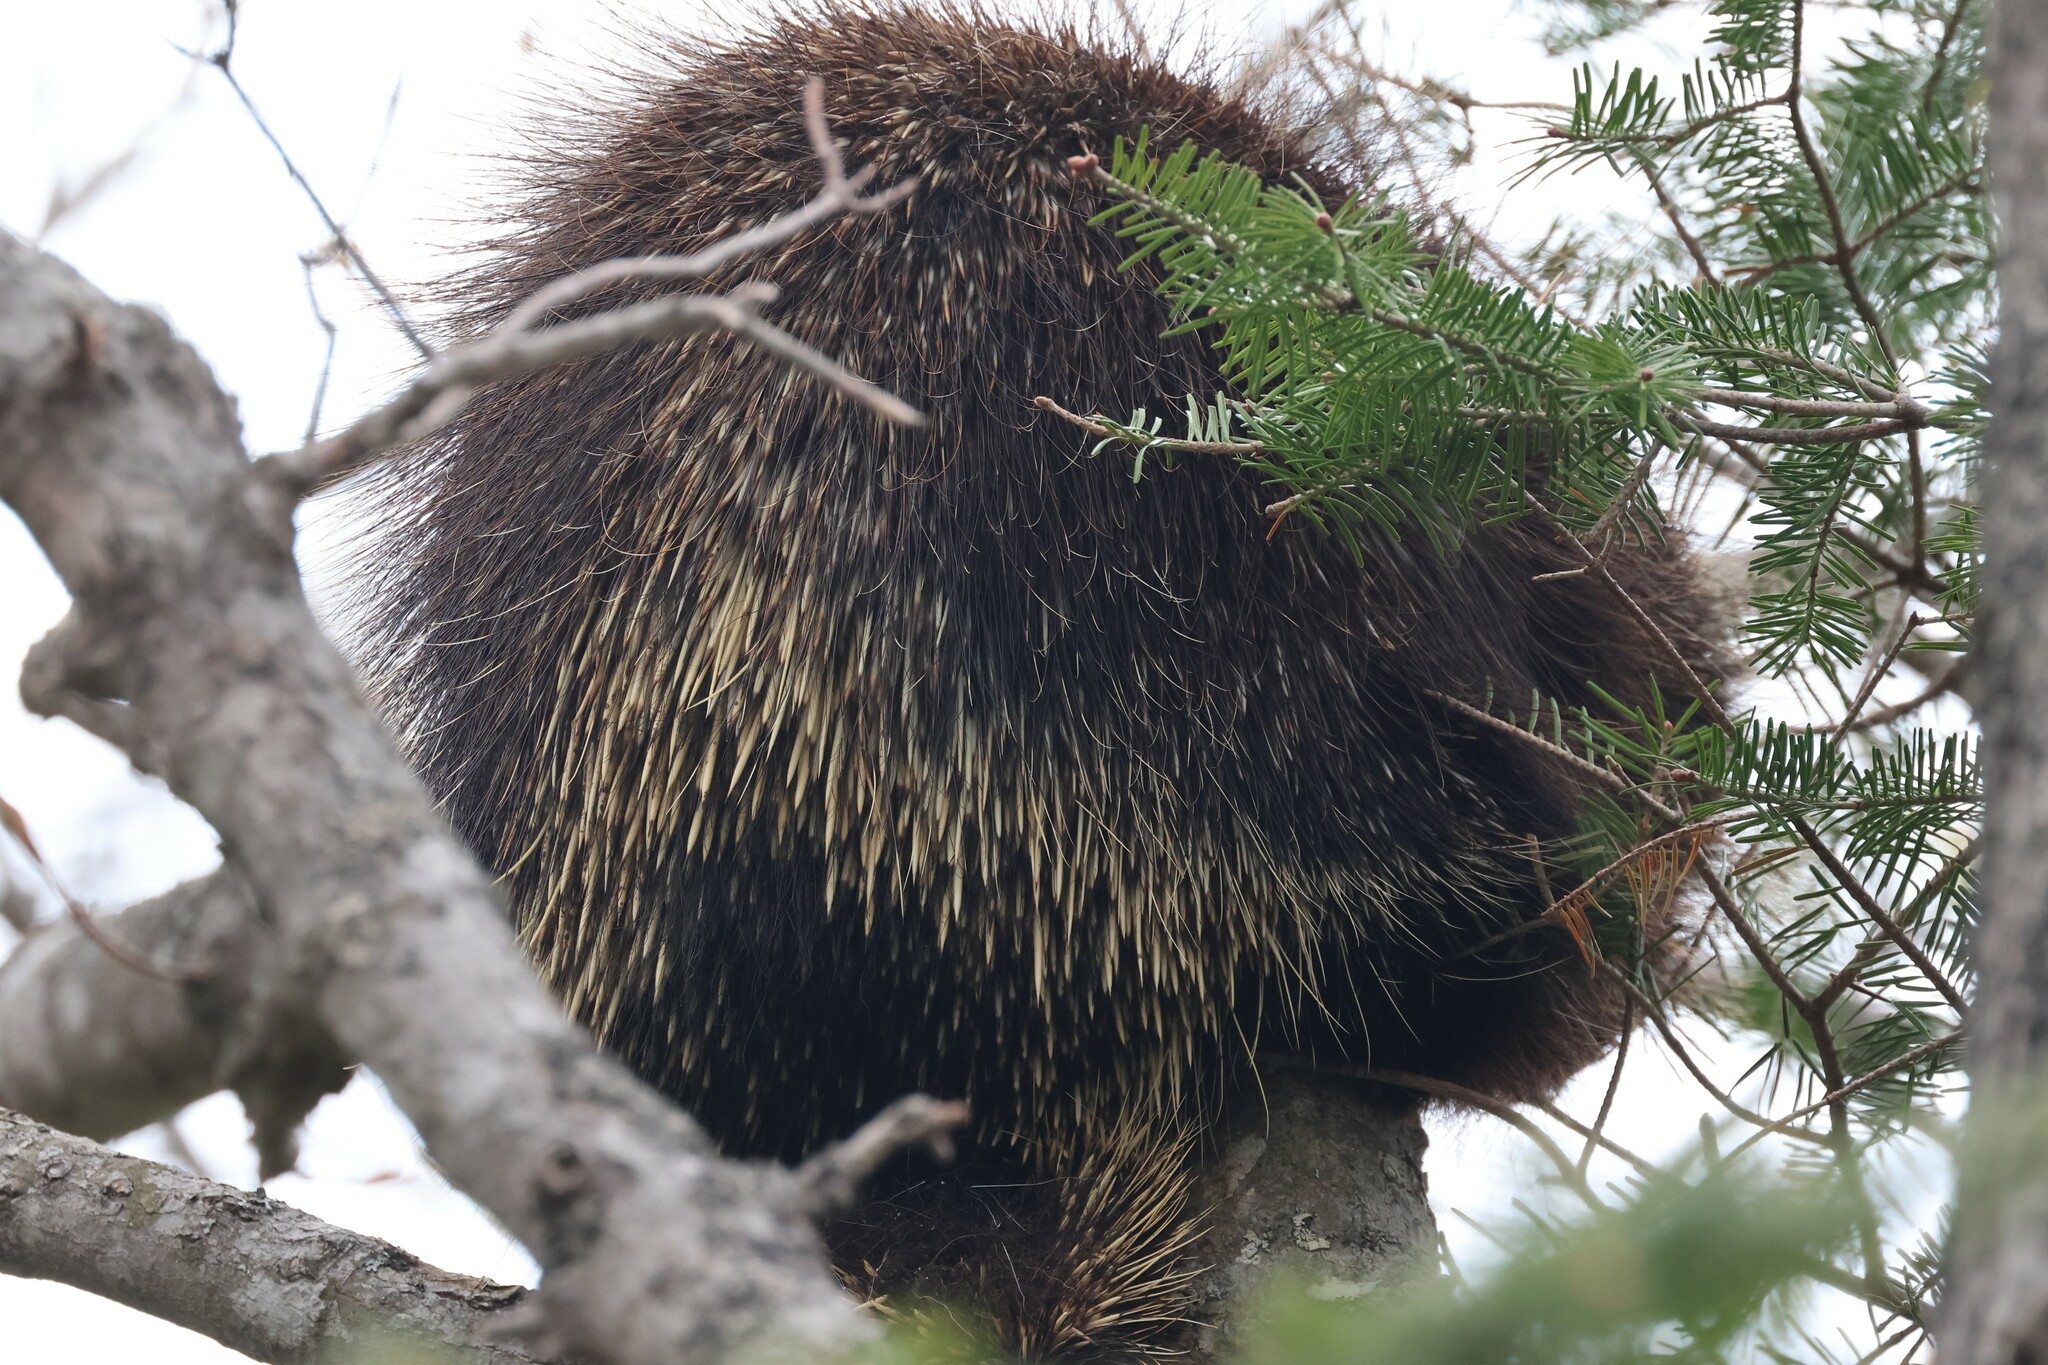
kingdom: Animalia
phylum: Chordata
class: Mammalia
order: Rodentia
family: Erethizontidae
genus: Erethizon
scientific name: Erethizon dorsatus
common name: North american porcupine
